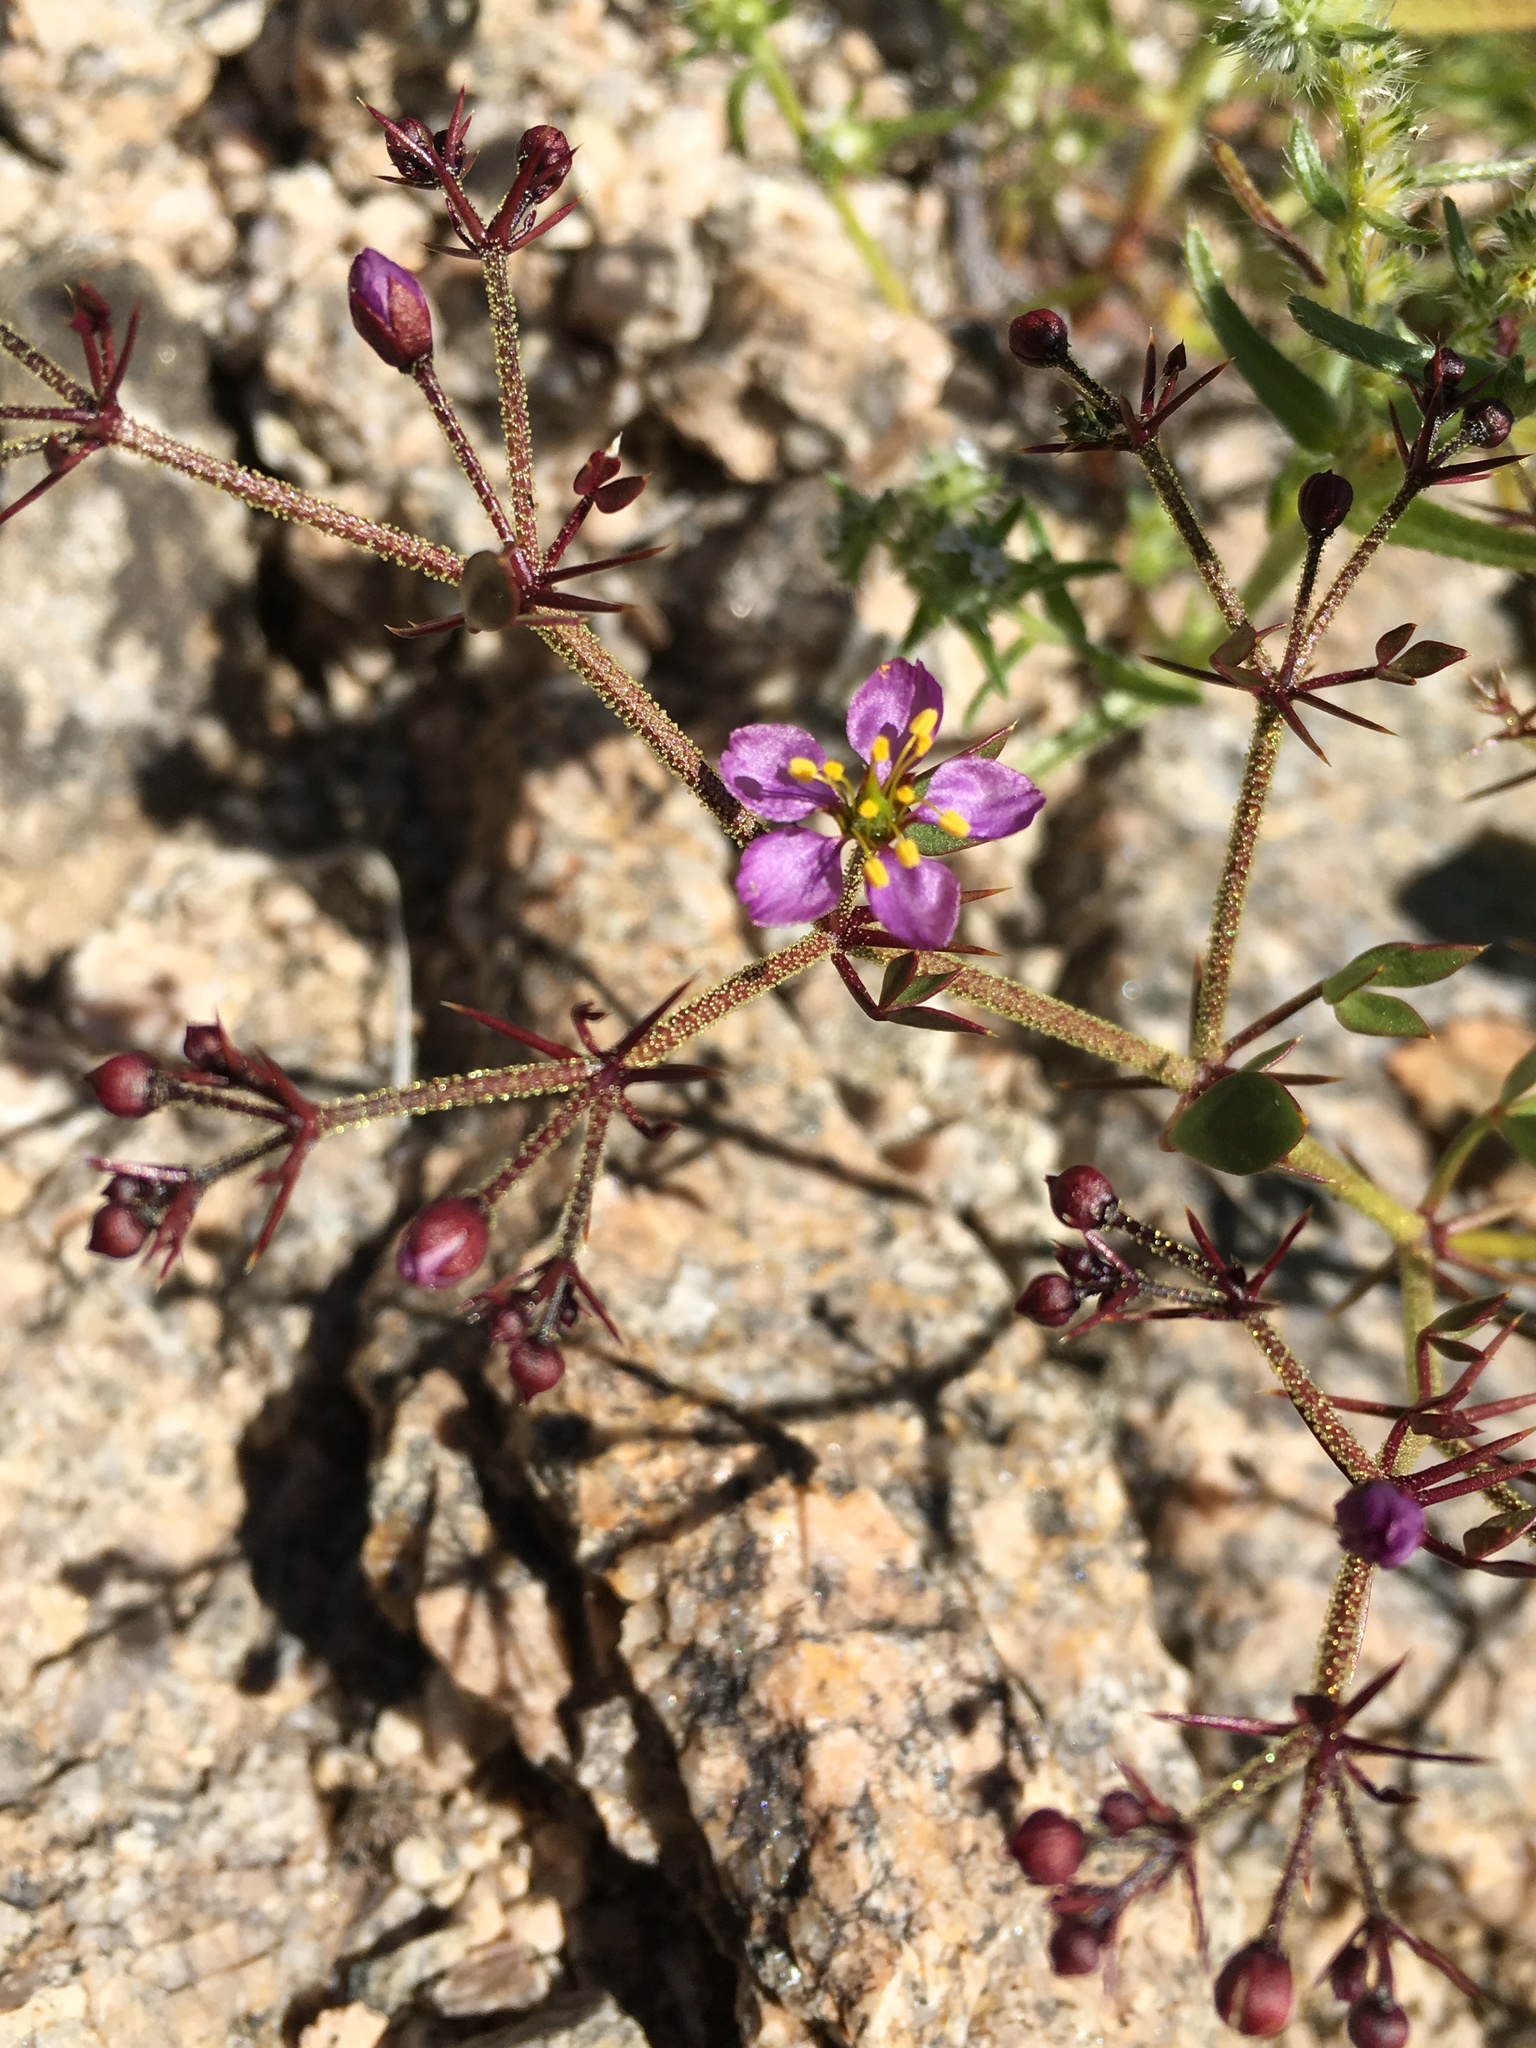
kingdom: Plantae
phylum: Tracheophyta
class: Magnoliopsida
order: Zygophyllales
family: Zygophyllaceae
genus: Fagonia
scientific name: Fagonia pachyacantha
